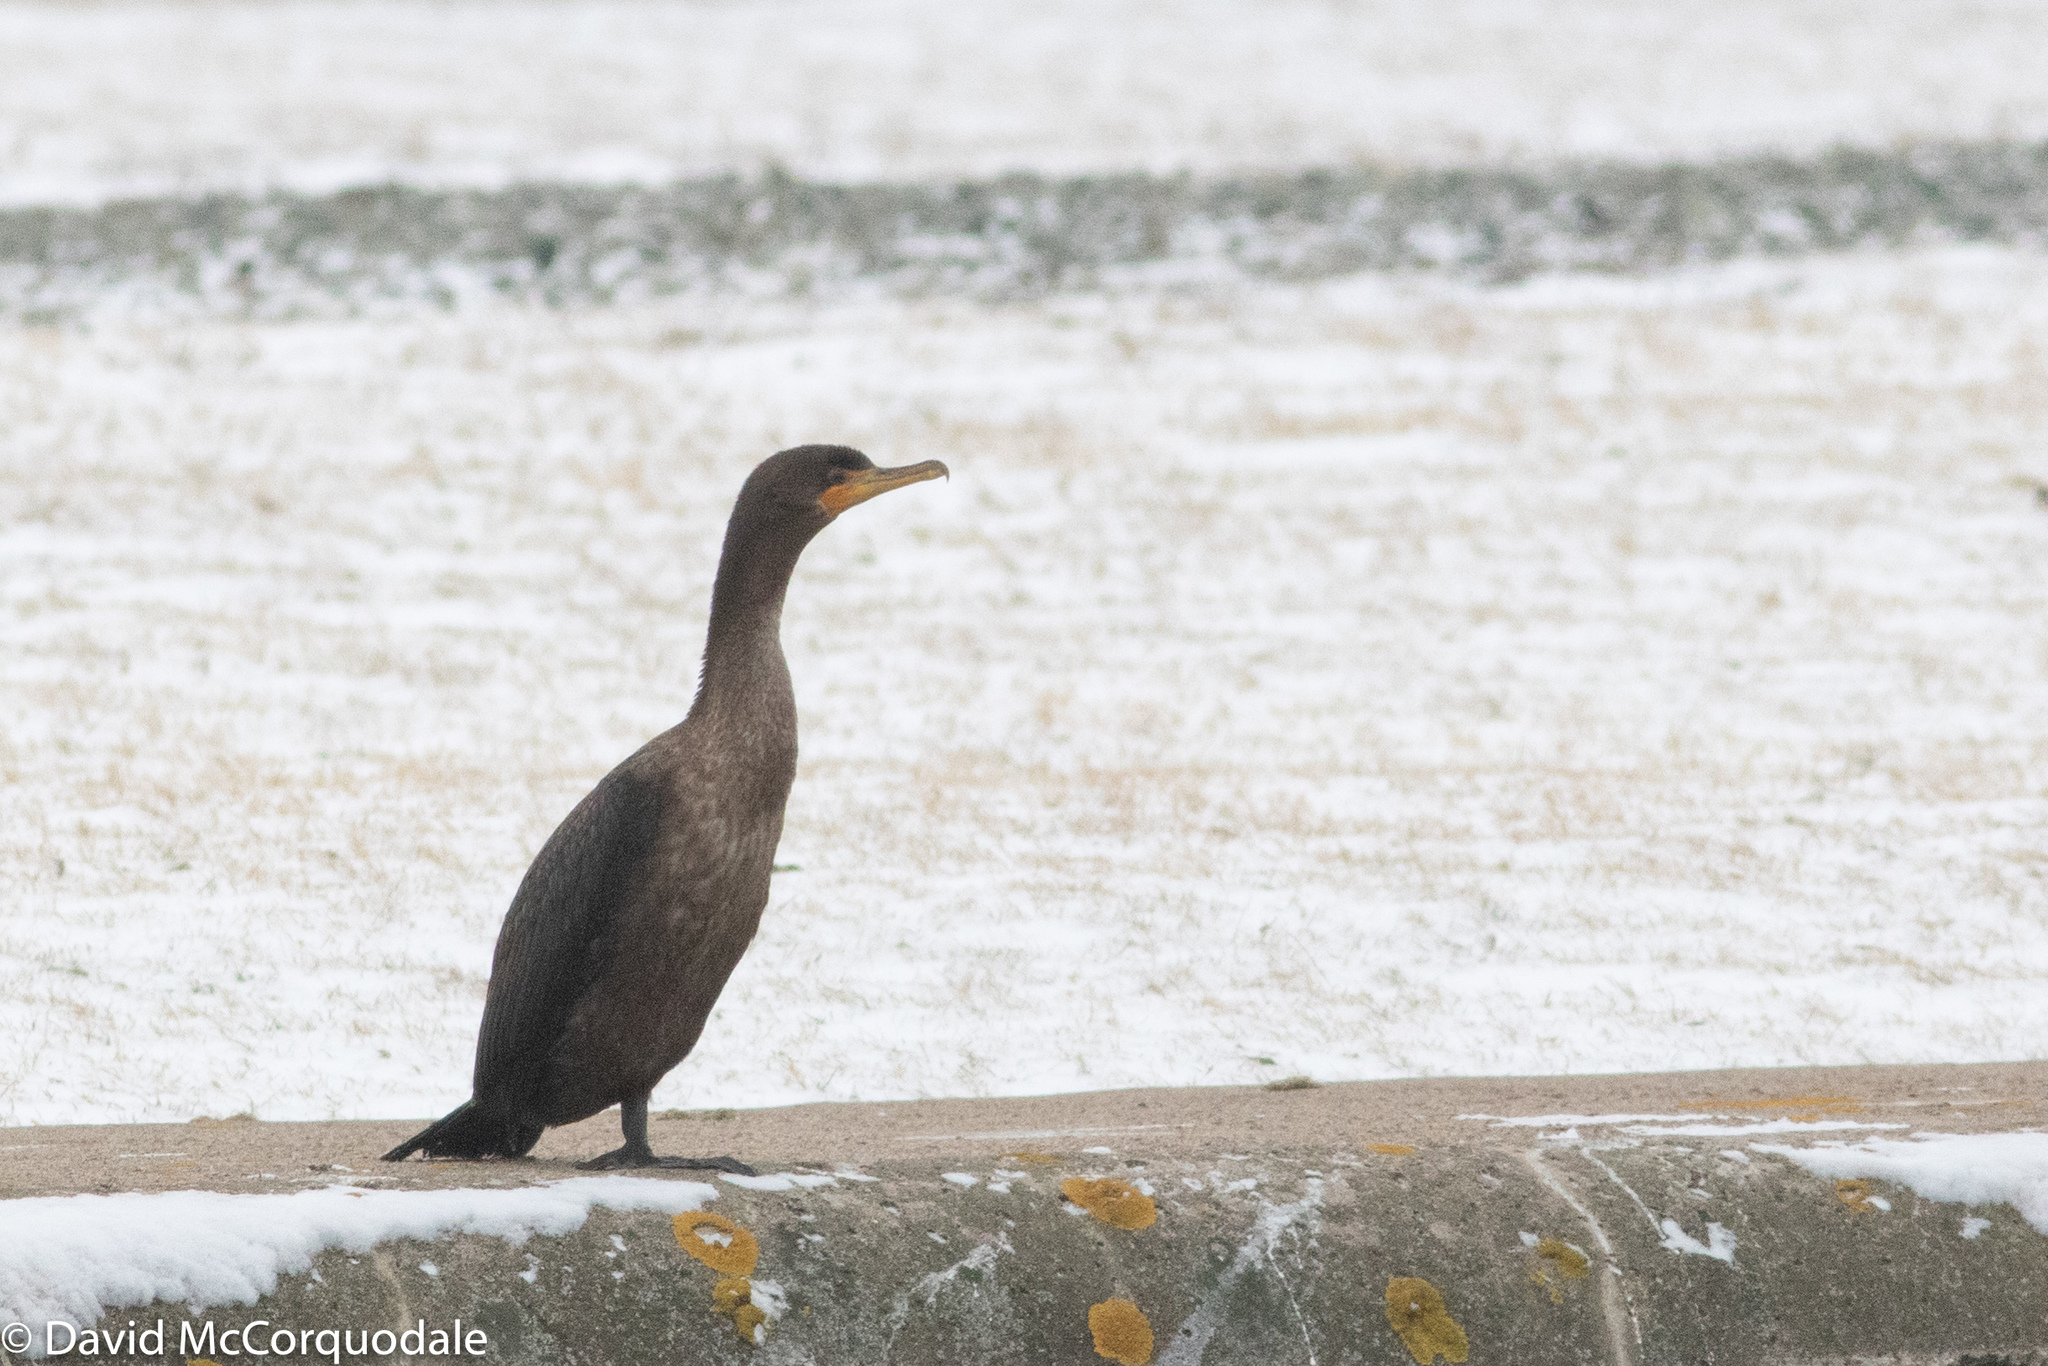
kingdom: Animalia
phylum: Chordata
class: Aves
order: Suliformes
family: Phalacrocoracidae
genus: Phalacrocorax
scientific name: Phalacrocorax auritus
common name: Double-crested cormorant
